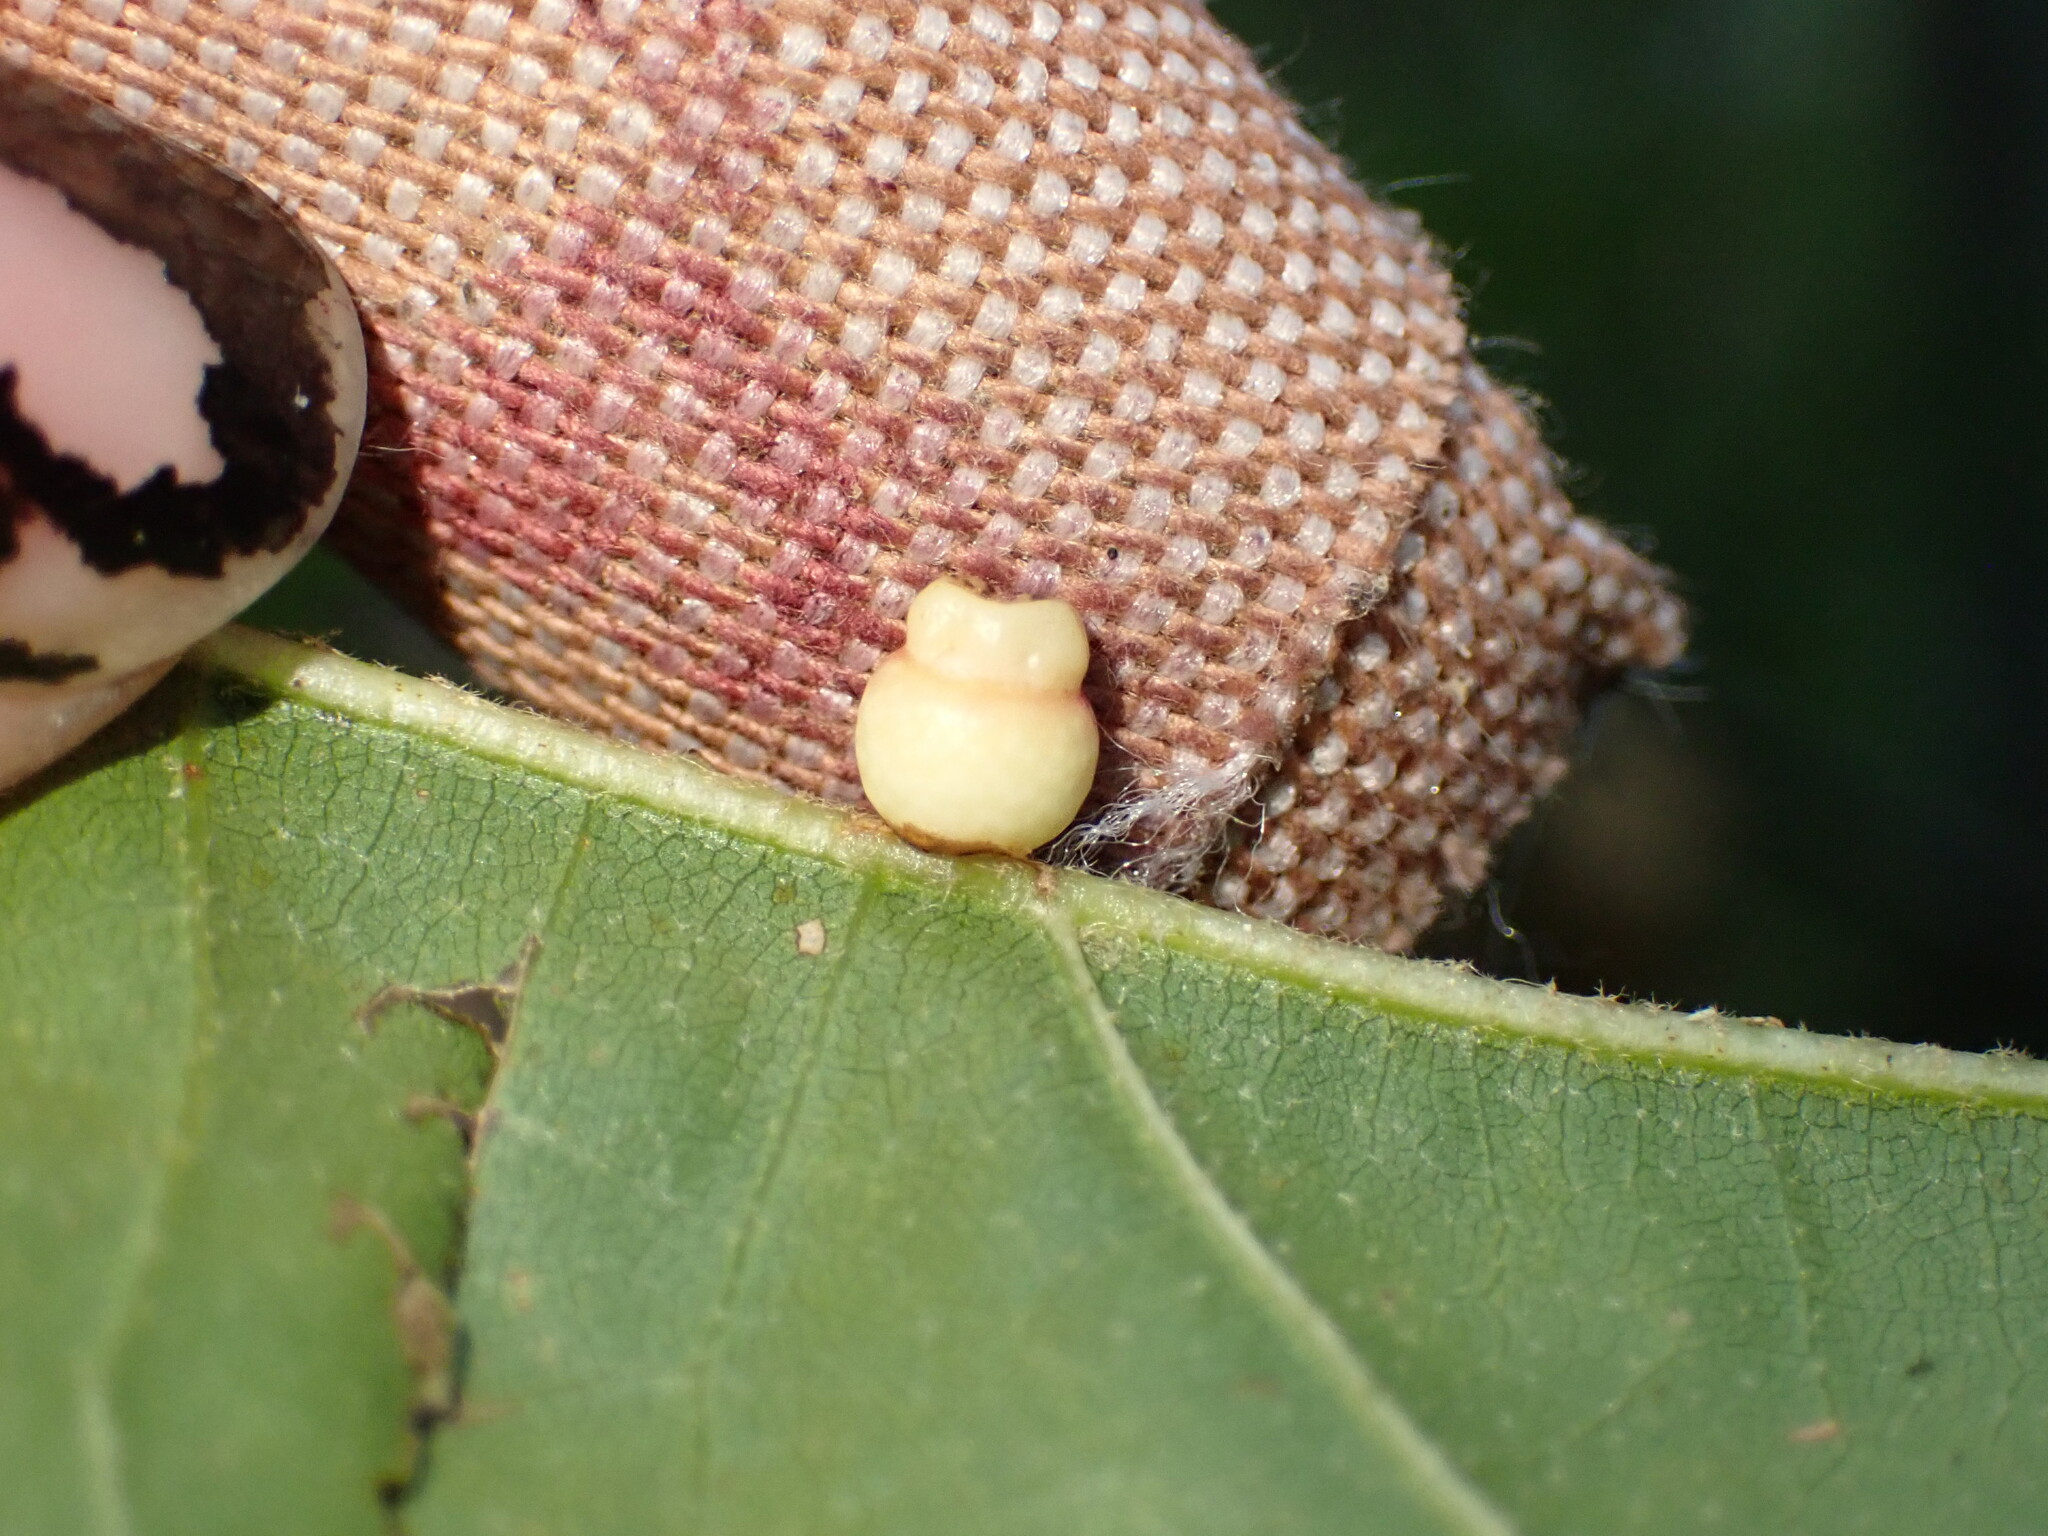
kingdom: Animalia
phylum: Arthropoda
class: Insecta
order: Hymenoptera
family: Cynipidae
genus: Kokkocynips
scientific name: Kokkocynips rileyi
